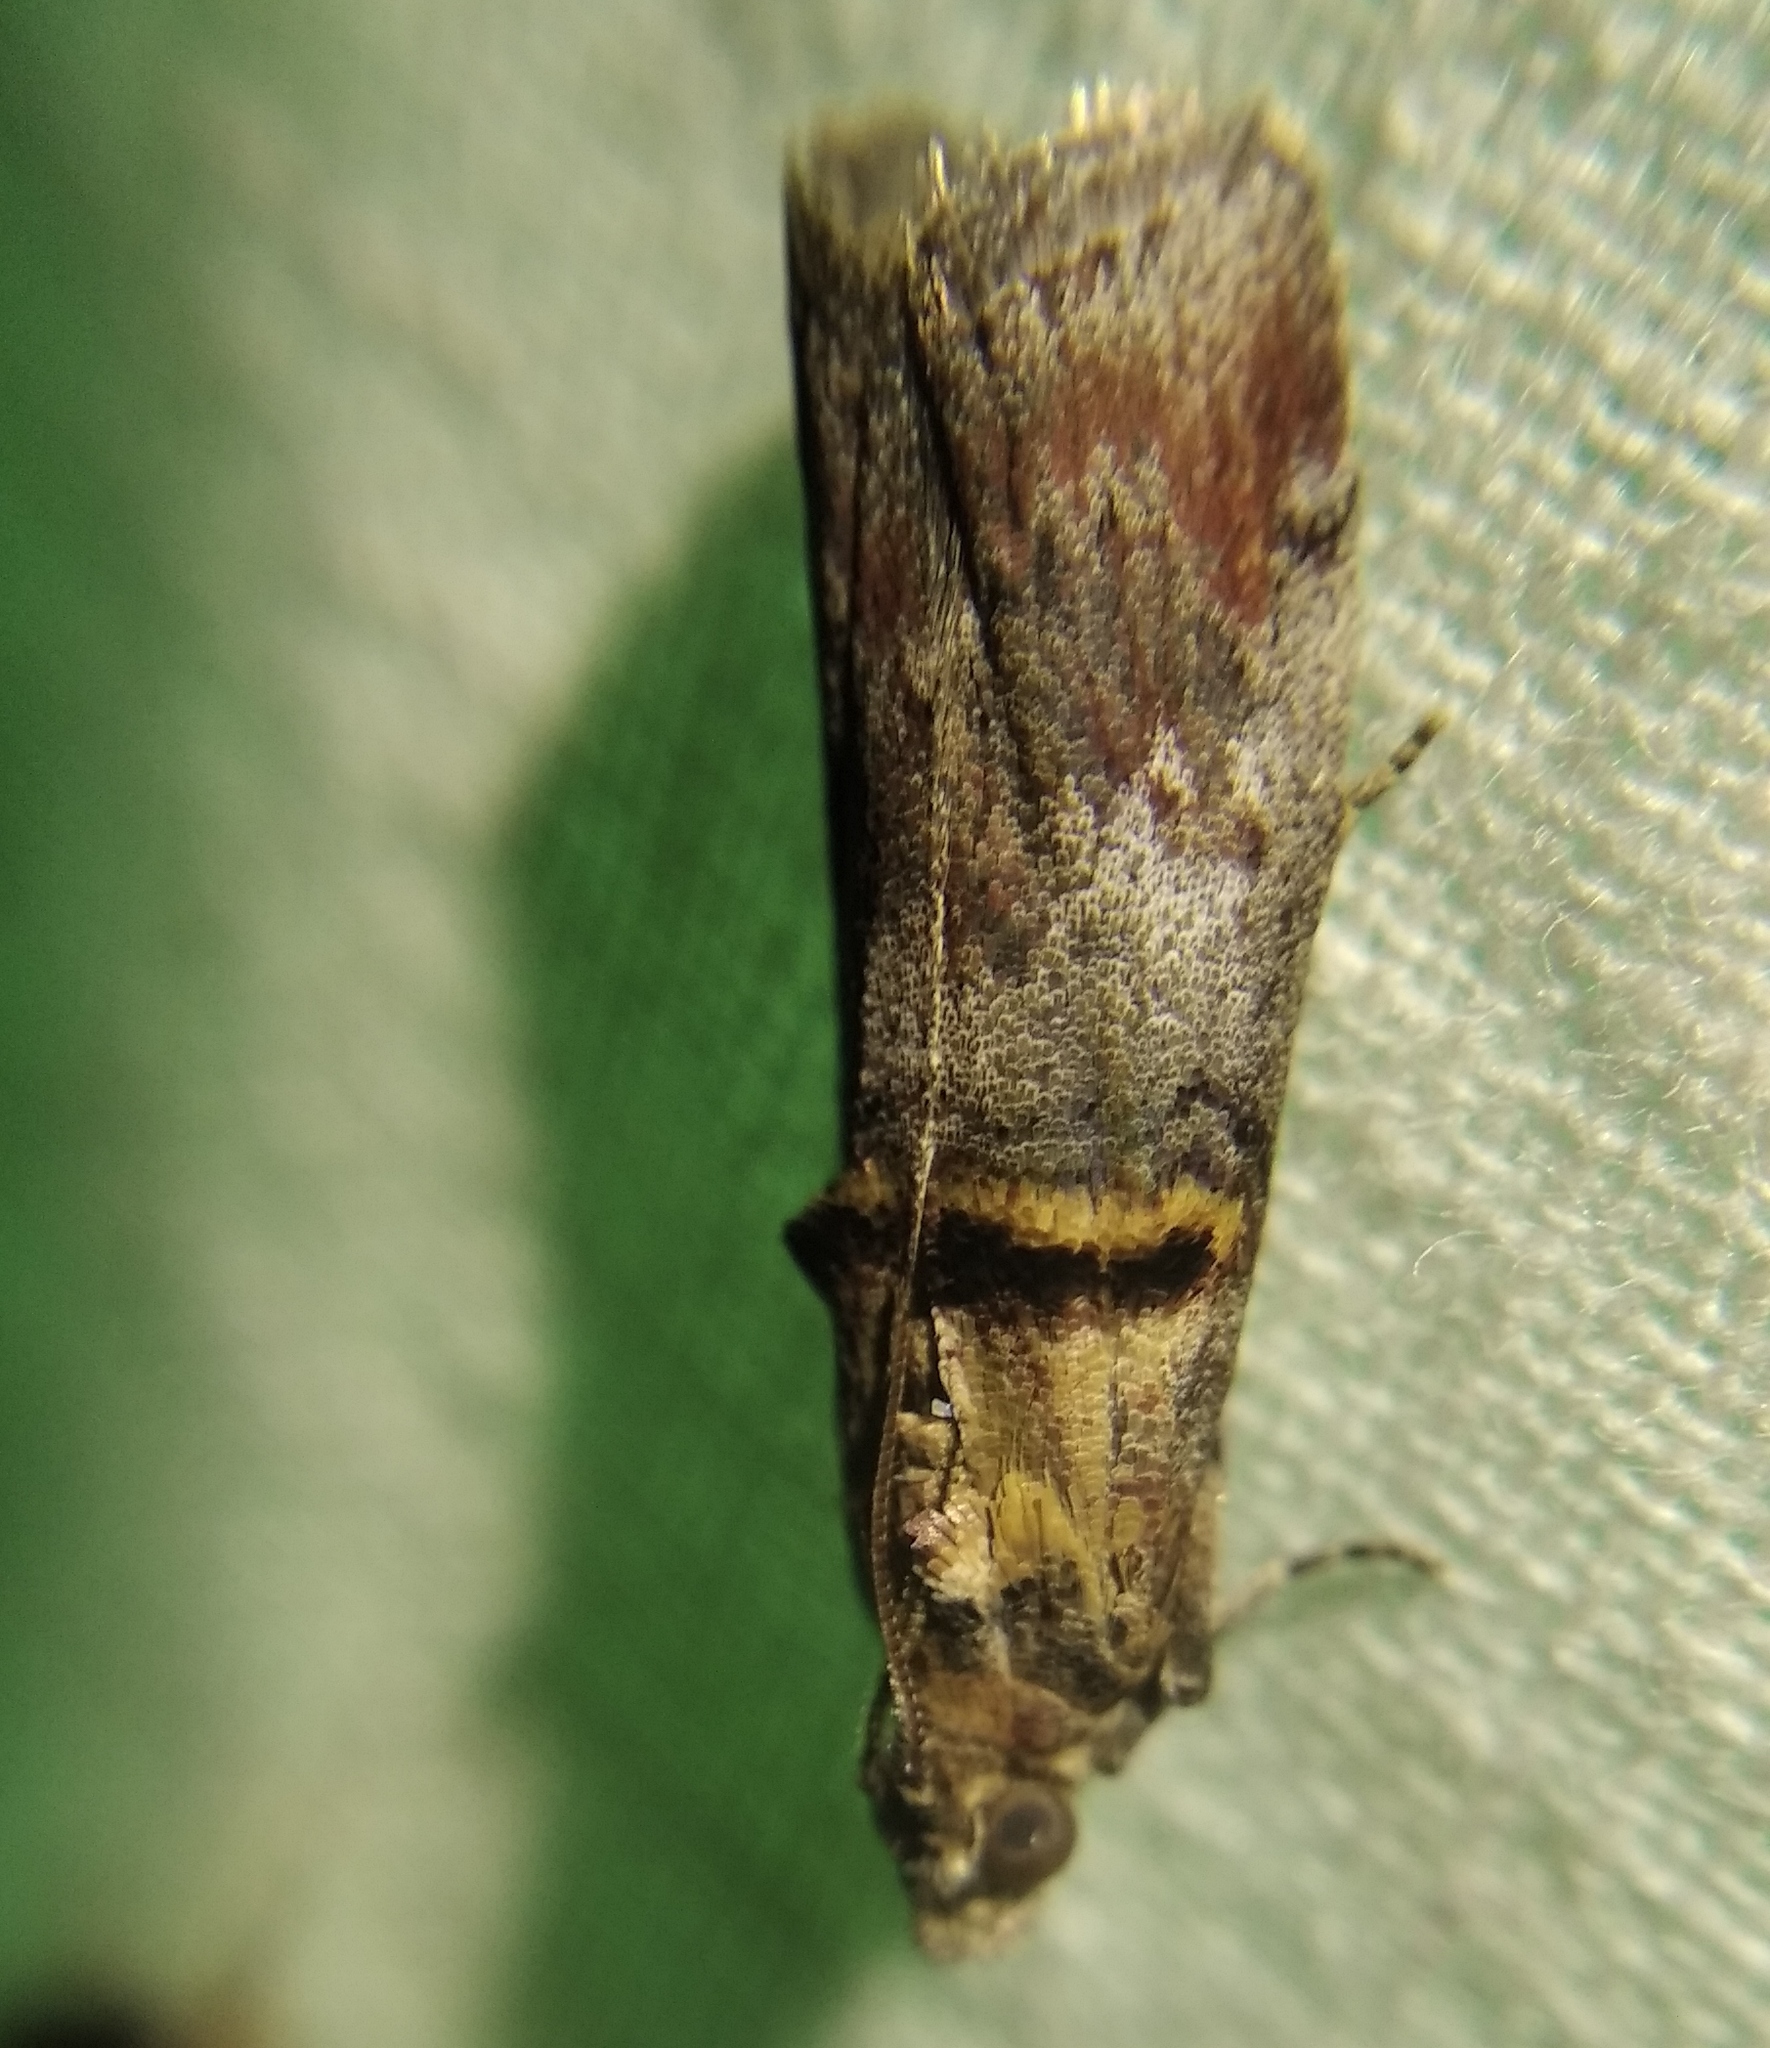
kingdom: Animalia
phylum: Arthropoda
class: Insecta
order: Lepidoptera
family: Pyralidae
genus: Trachonitis
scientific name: Trachonitis cristella
